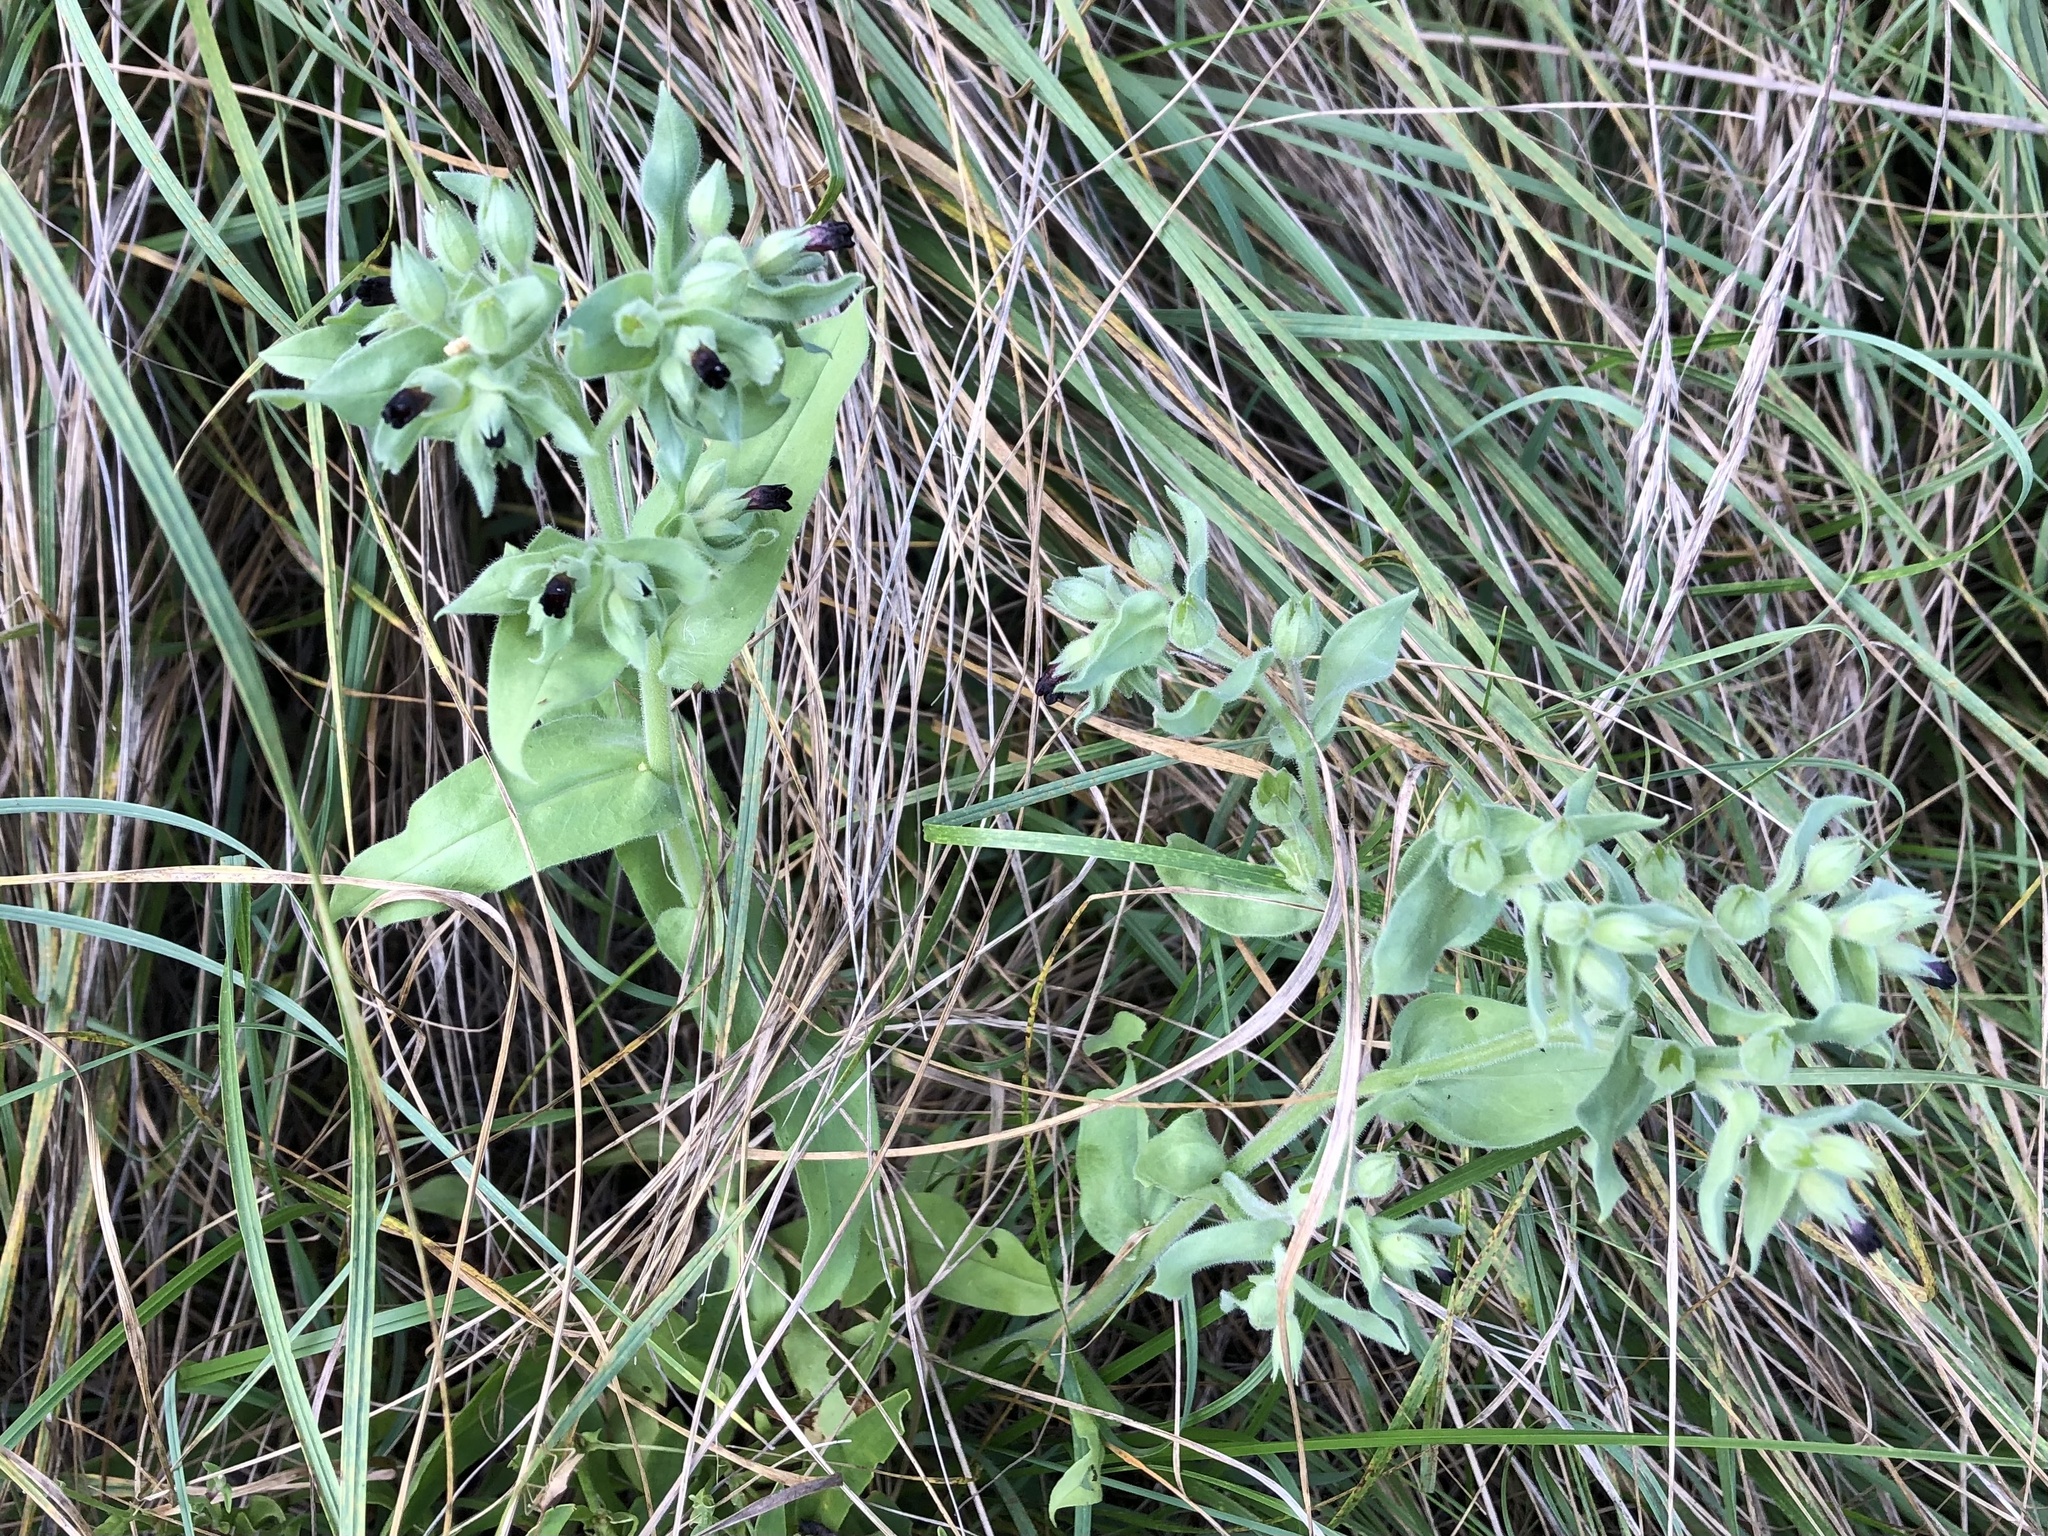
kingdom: Plantae
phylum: Tracheophyta
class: Magnoliopsida
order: Boraginales
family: Boraginaceae
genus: Nonea
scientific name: Nonea pulla
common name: Brown nonea
